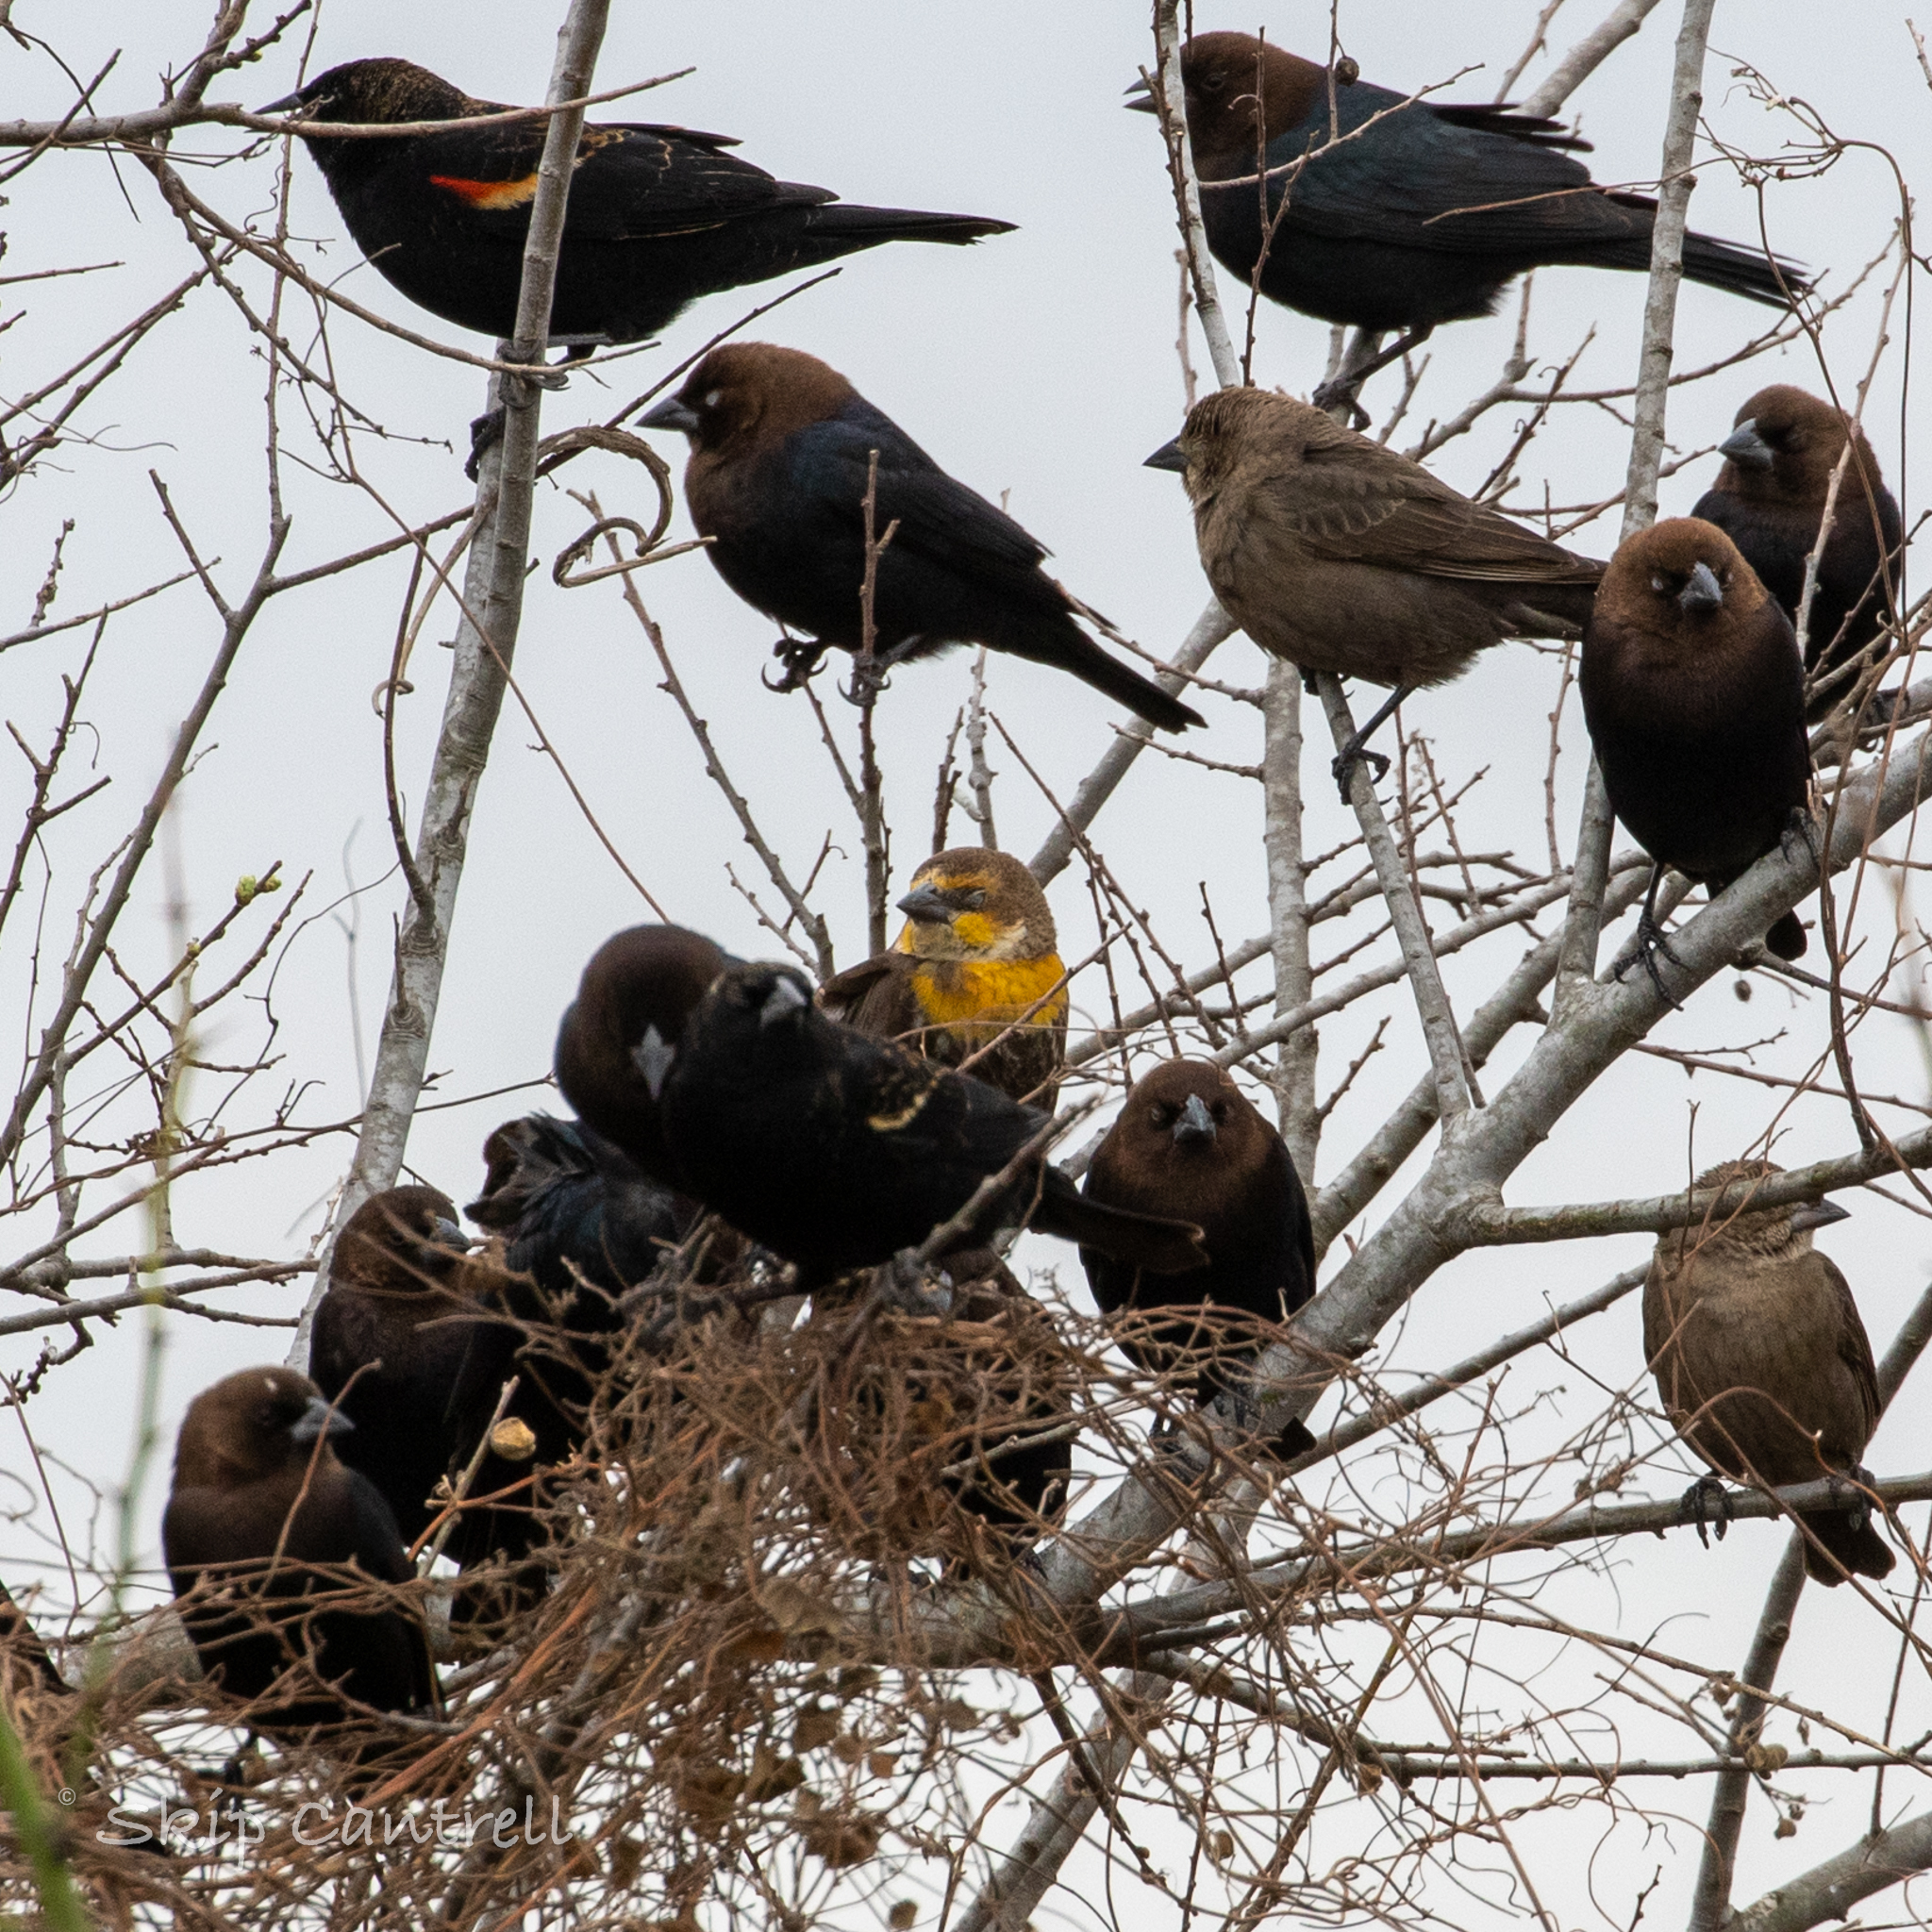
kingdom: Animalia
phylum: Chordata
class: Aves
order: Passeriformes
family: Icteridae
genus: Xanthocephalus
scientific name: Xanthocephalus xanthocephalus
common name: Yellow-headed blackbird
